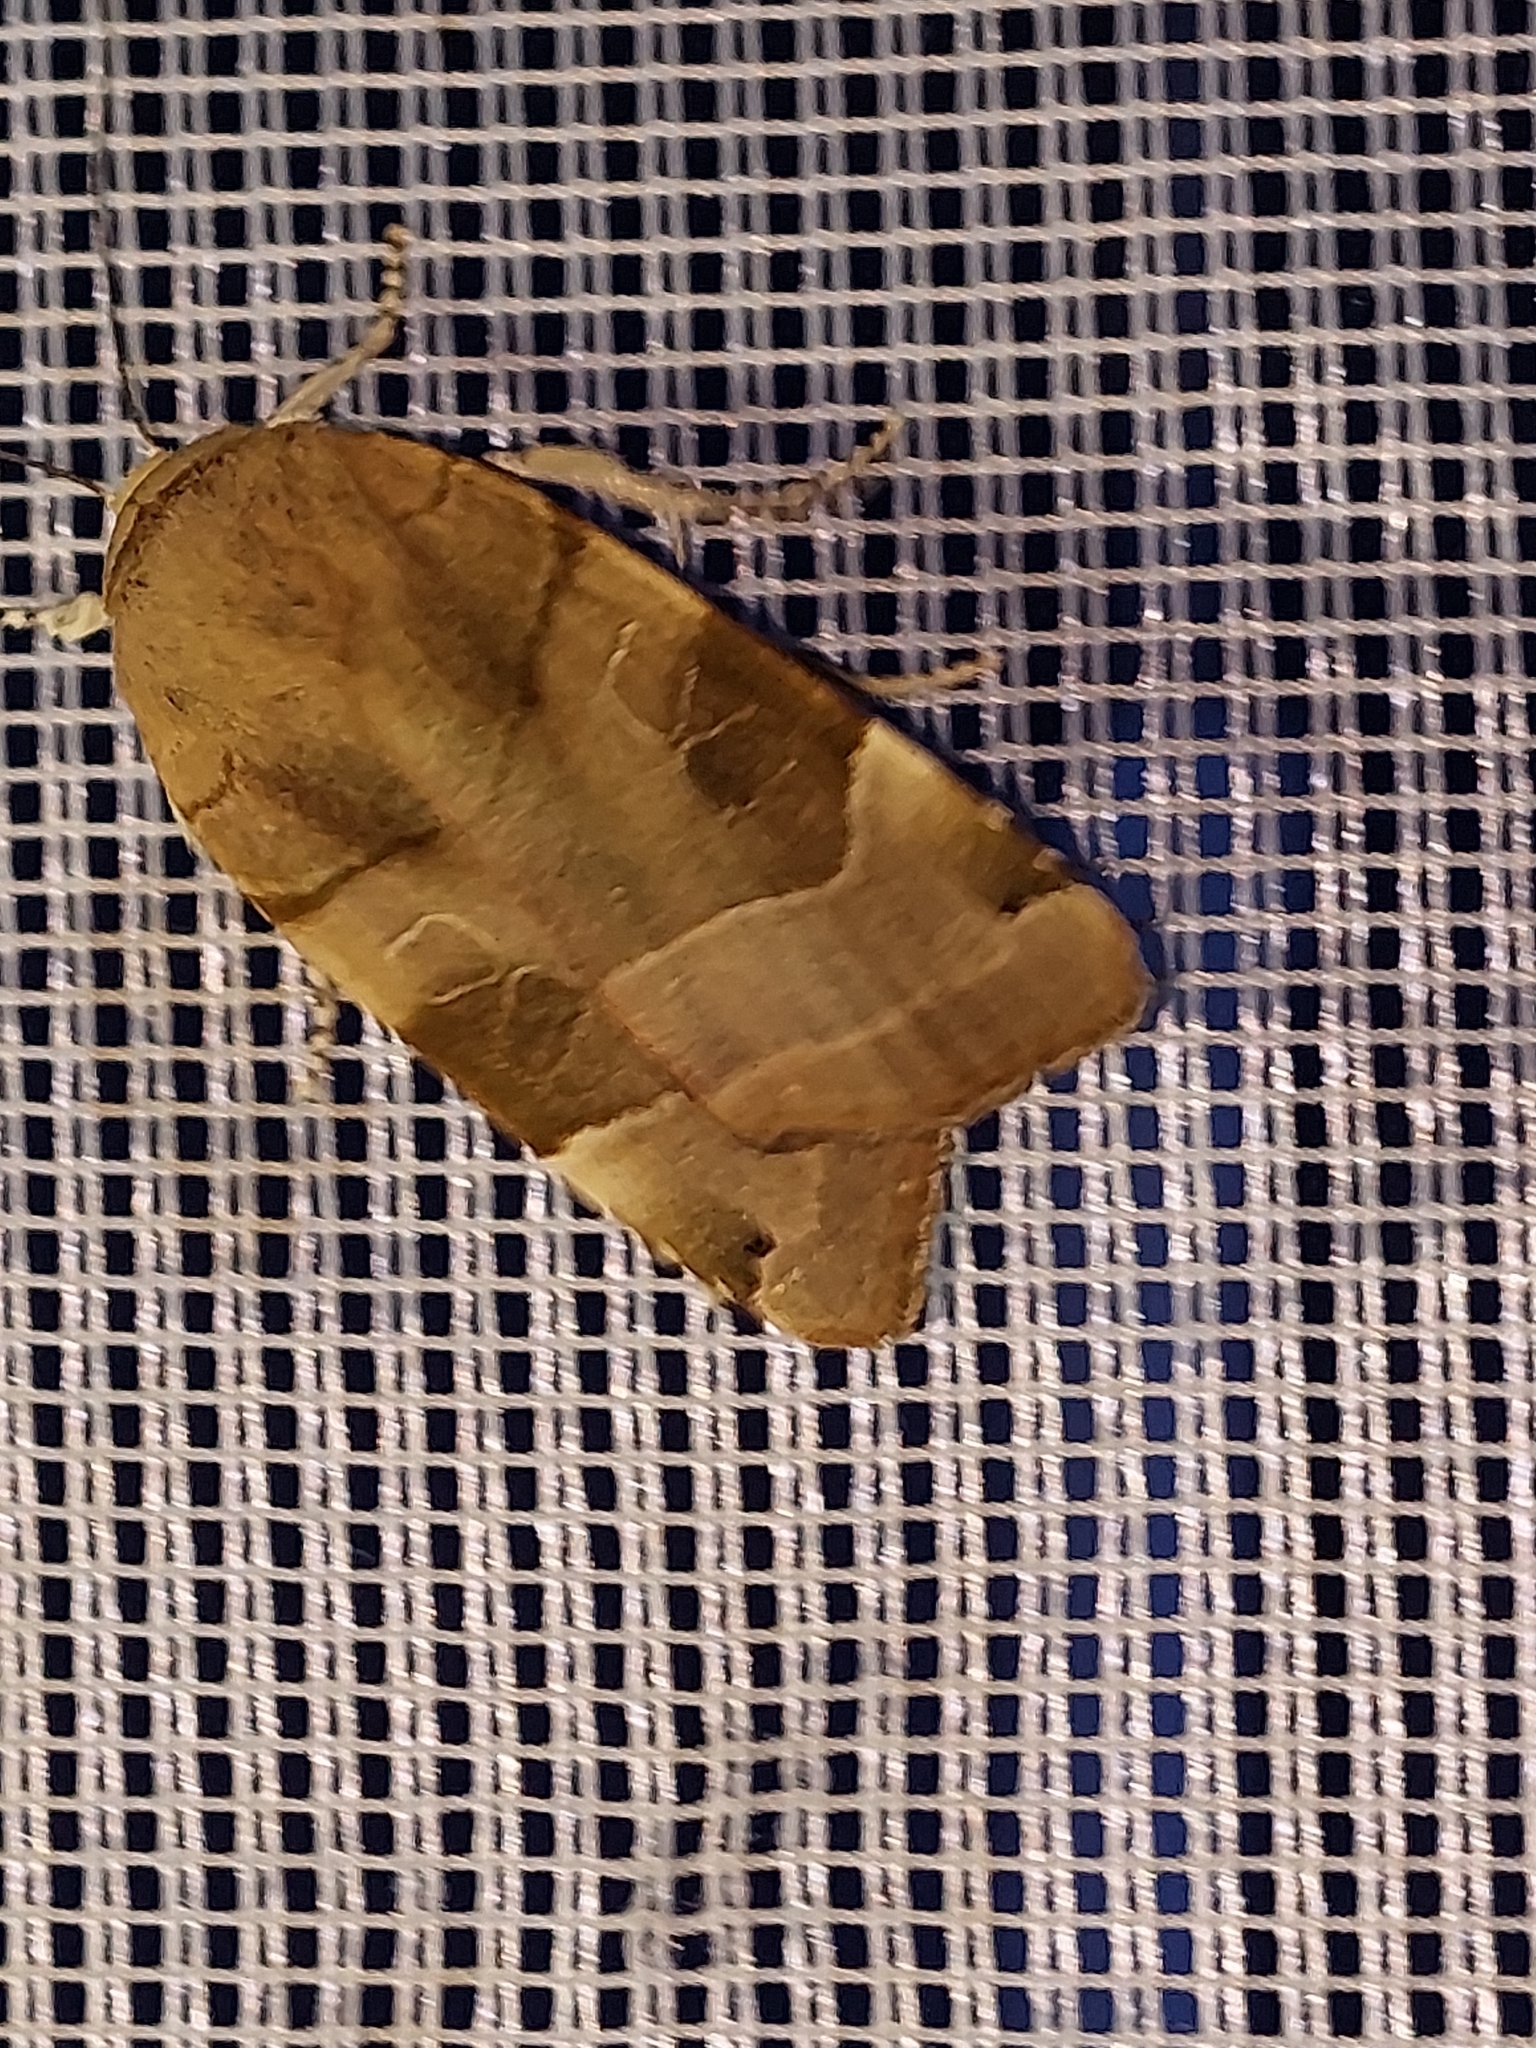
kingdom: Animalia
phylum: Arthropoda
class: Insecta
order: Lepidoptera
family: Noctuidae
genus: Noctua
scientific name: Noctua fimbriata
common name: Broad-bordered yellow underwing
